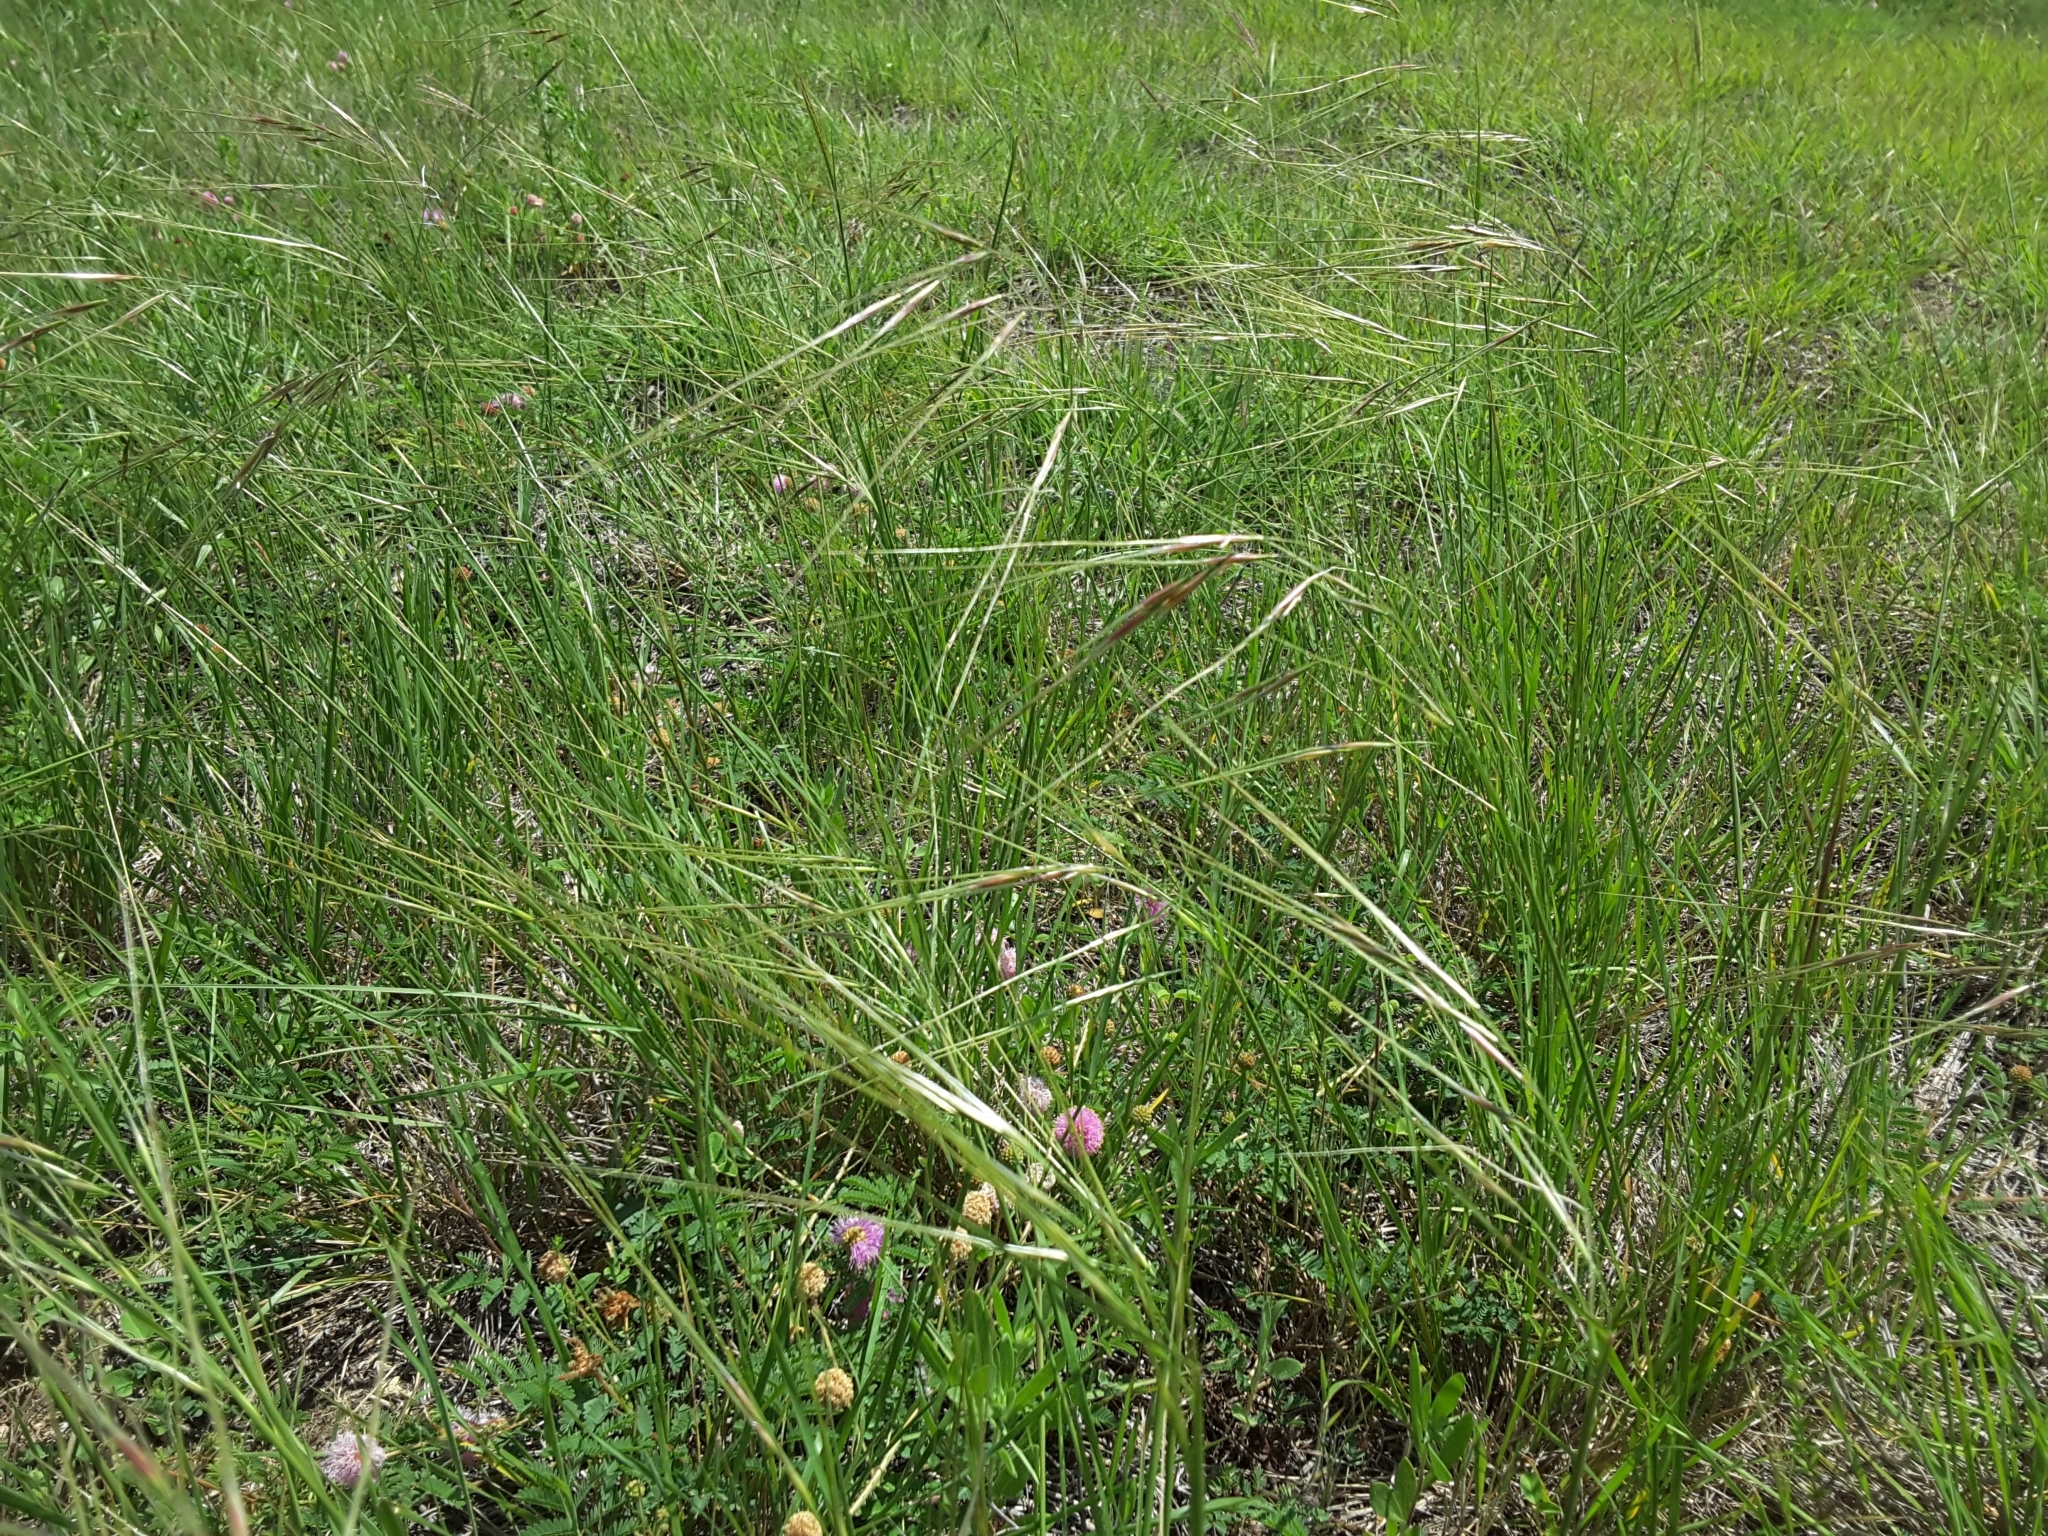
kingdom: Plantae
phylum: Tracheophyta
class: Liliopsida
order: Poales
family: Poaceae
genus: Nassella
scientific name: Nassella leucotricha
